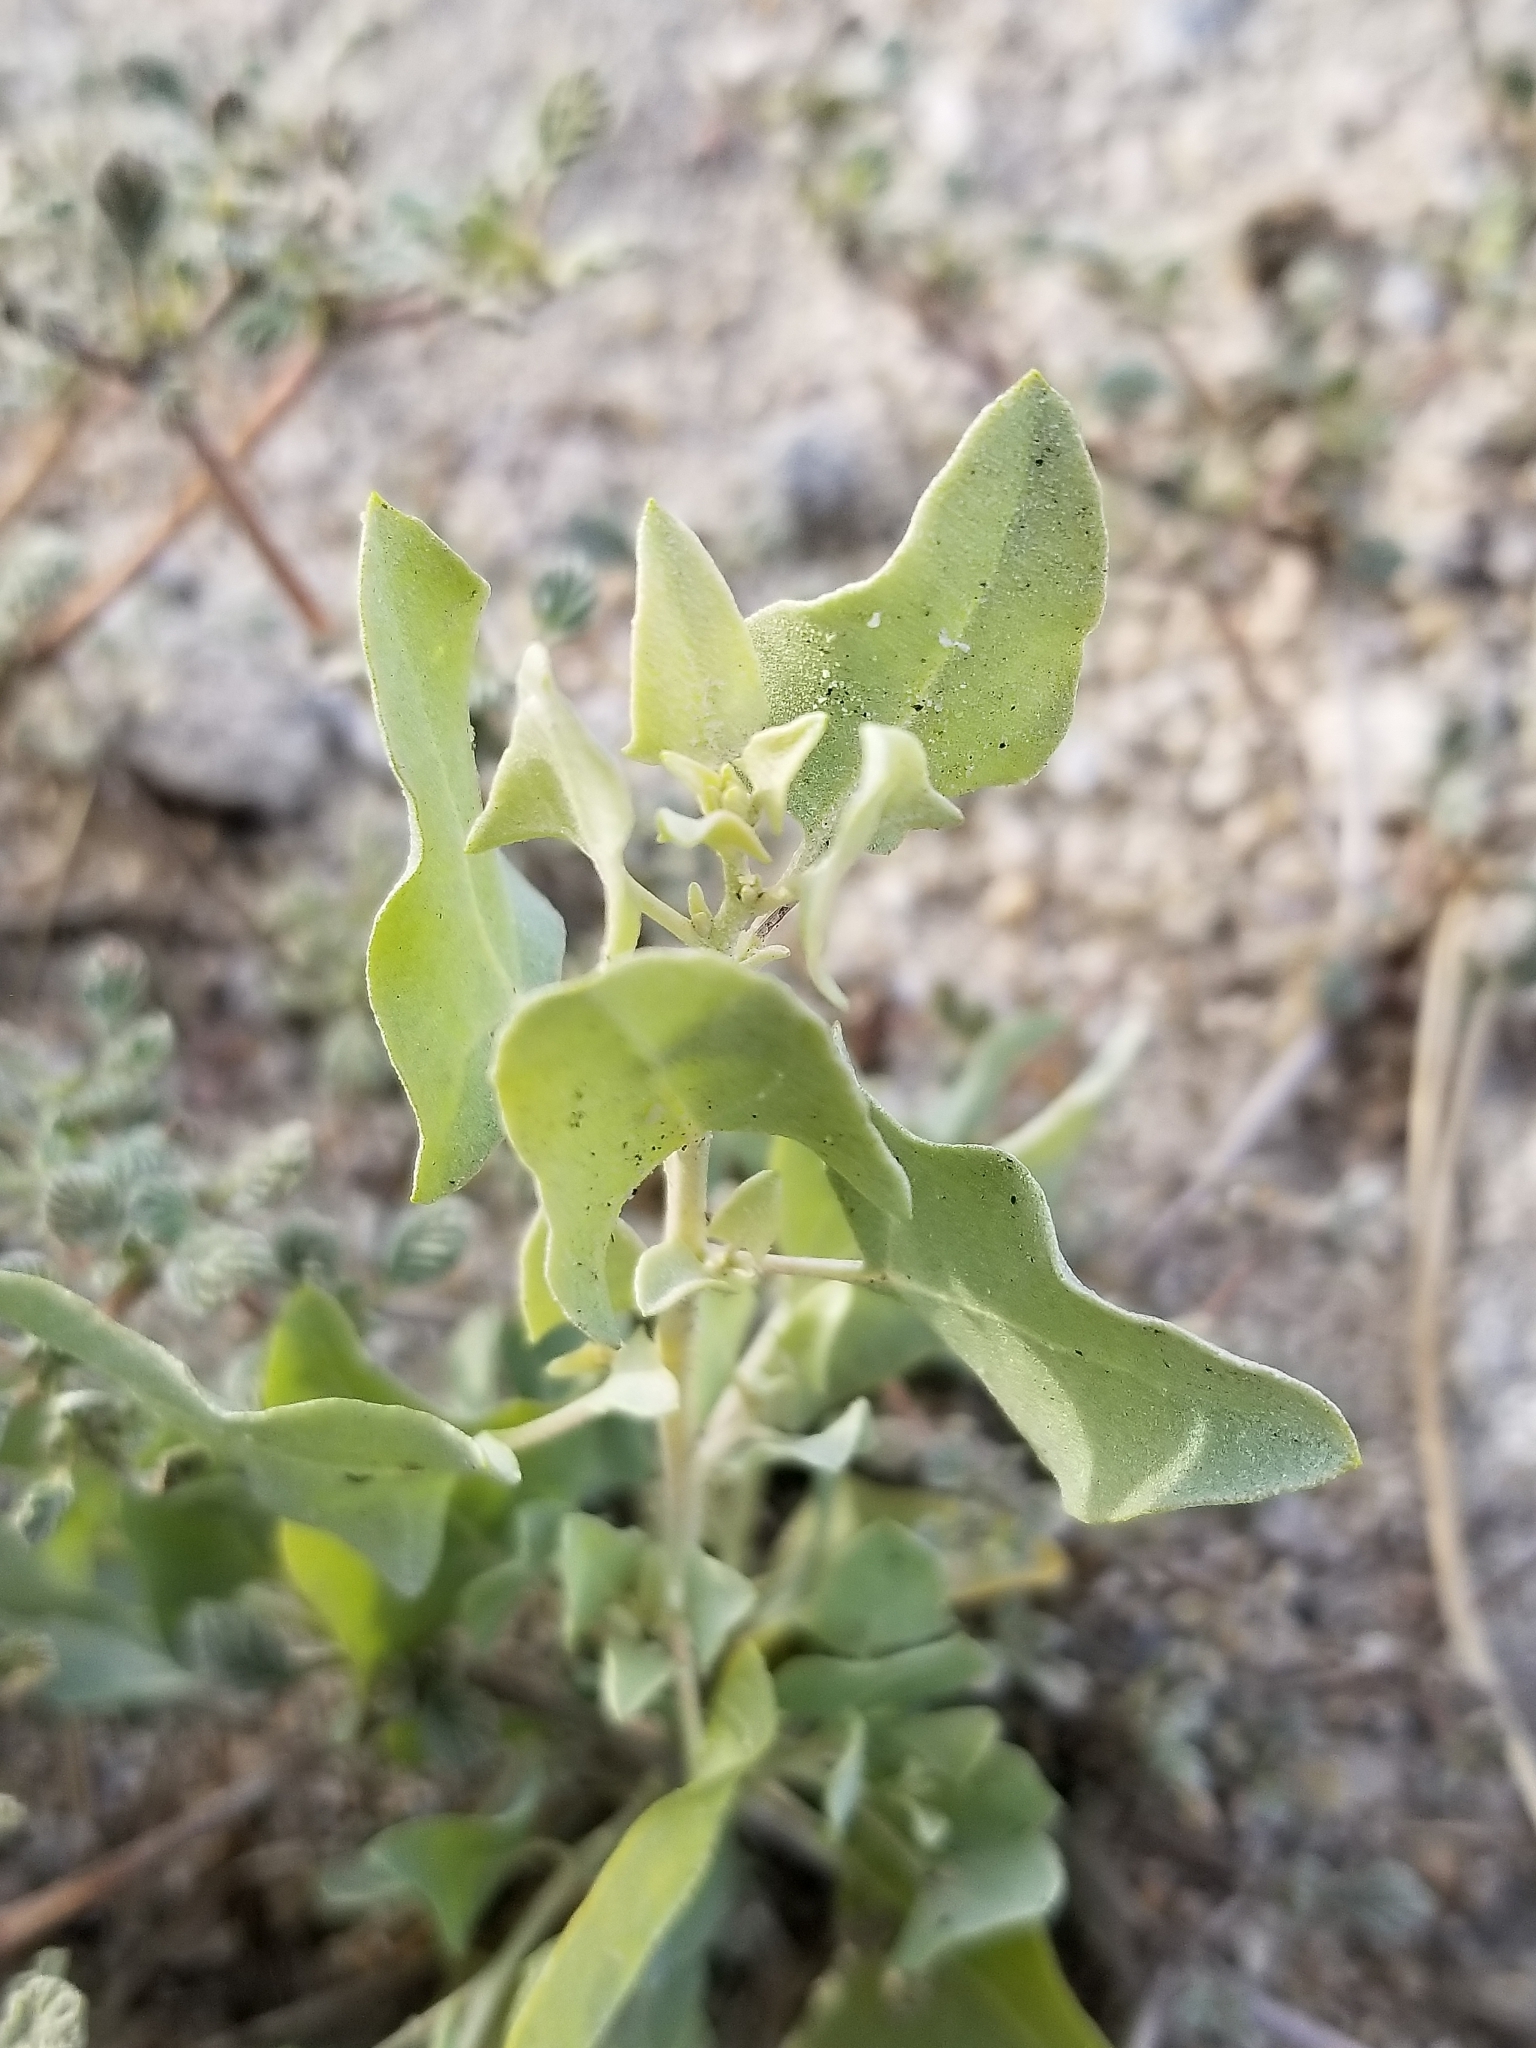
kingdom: Plantae
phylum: Tracheophyta
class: Magnoliopsida
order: Caryophyllales
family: Amaranthaceae
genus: Atriplex
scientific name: Atriplex lentiformis
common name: Big saltbush
